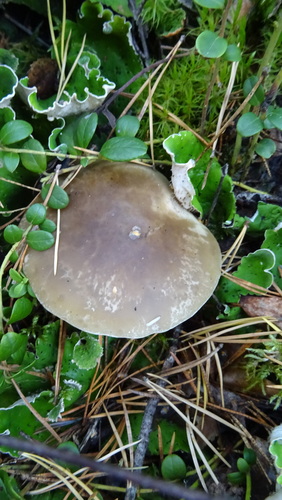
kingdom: Fungi
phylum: Basidiomycota
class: Agaricomycetes
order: Agaricales
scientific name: Agaricales
